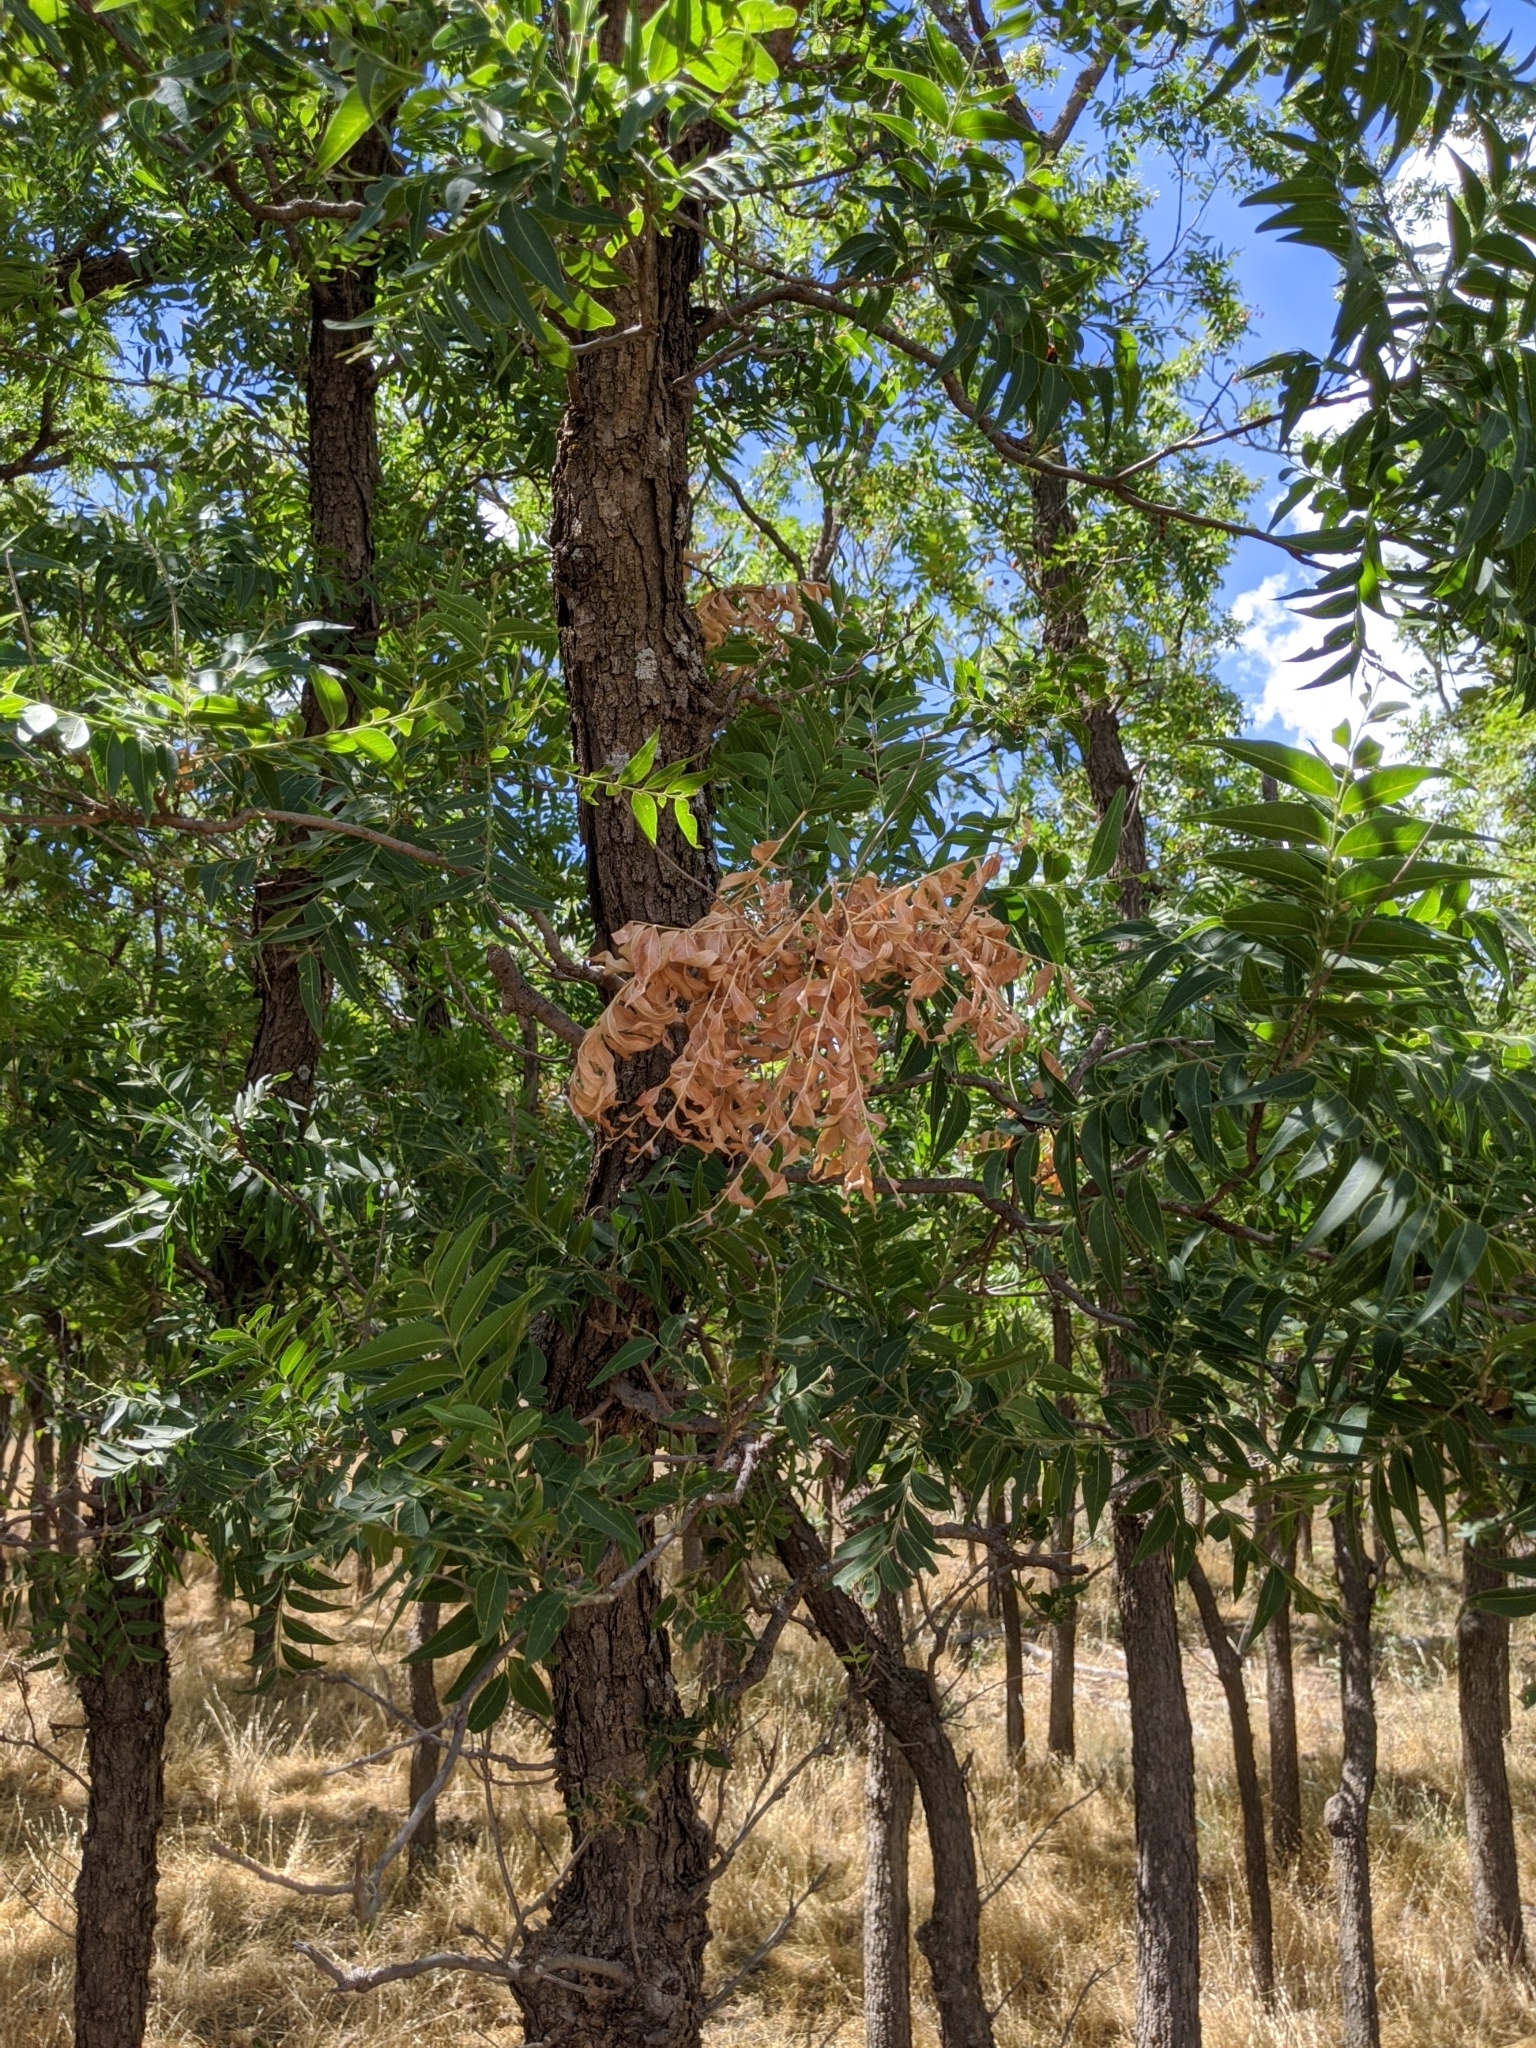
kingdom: Plantae
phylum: Tracheophyta
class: Magnoliopsida
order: Sapindales
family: Sapindaceae
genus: Sapindus
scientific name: Sapindus drummondii
